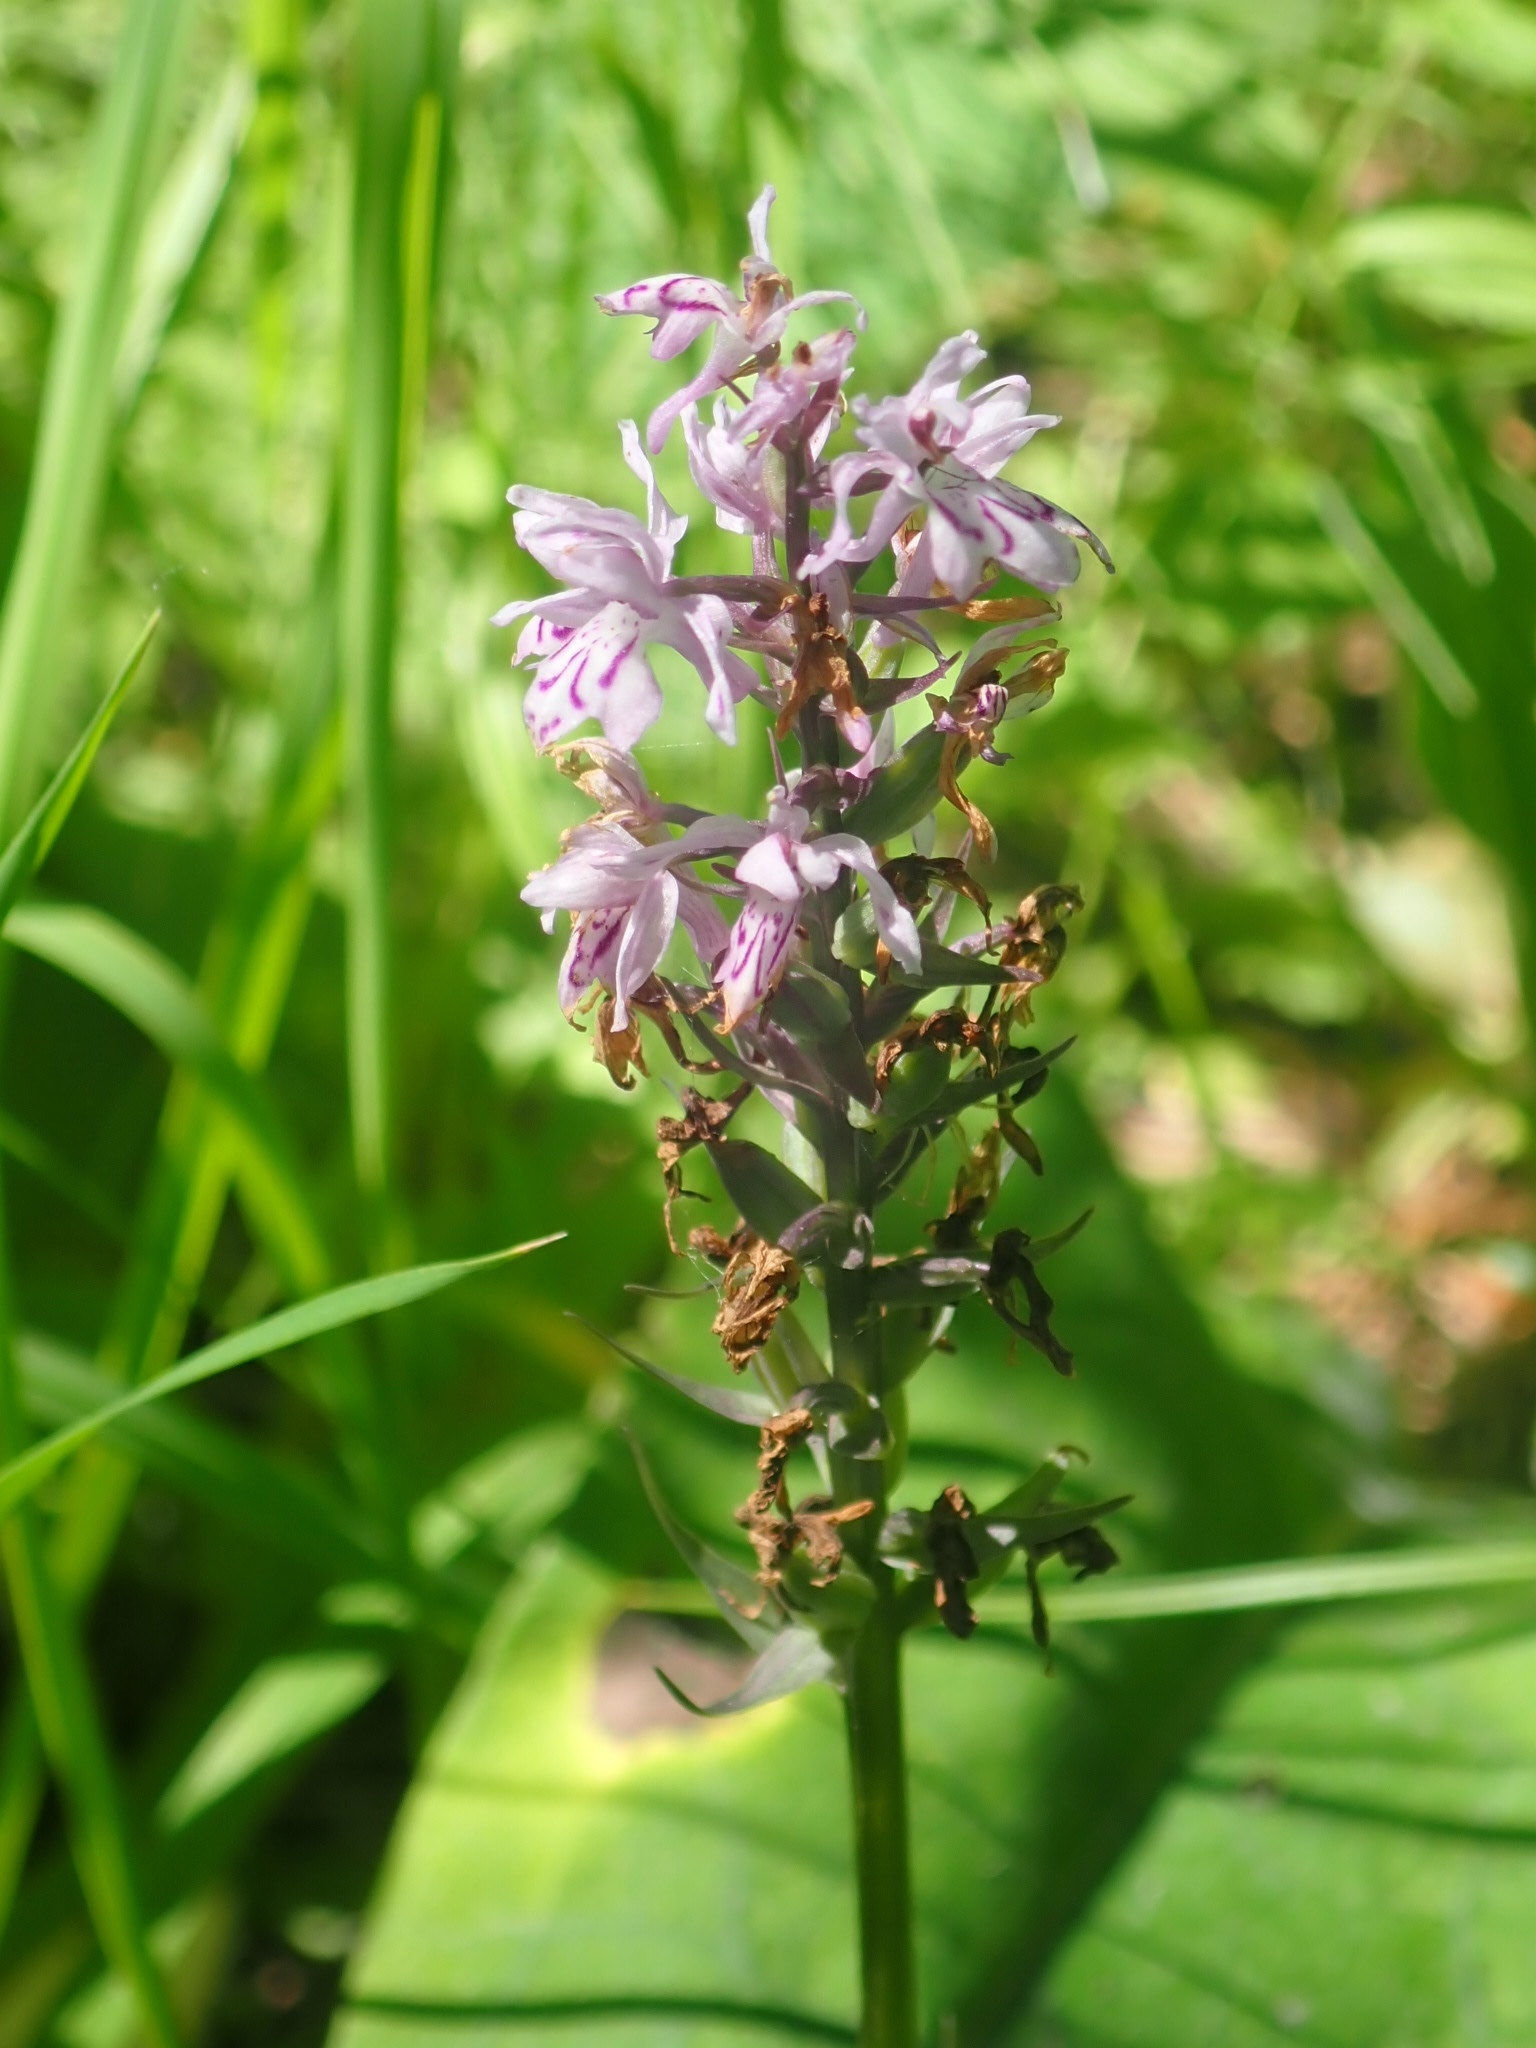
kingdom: Plantae
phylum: Tracheophyta
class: Liliopsida
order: Asparagales
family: Orchidaceae
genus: Dactylorhiza
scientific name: Dactylorhiza maculata
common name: Heath spotted-orchid
